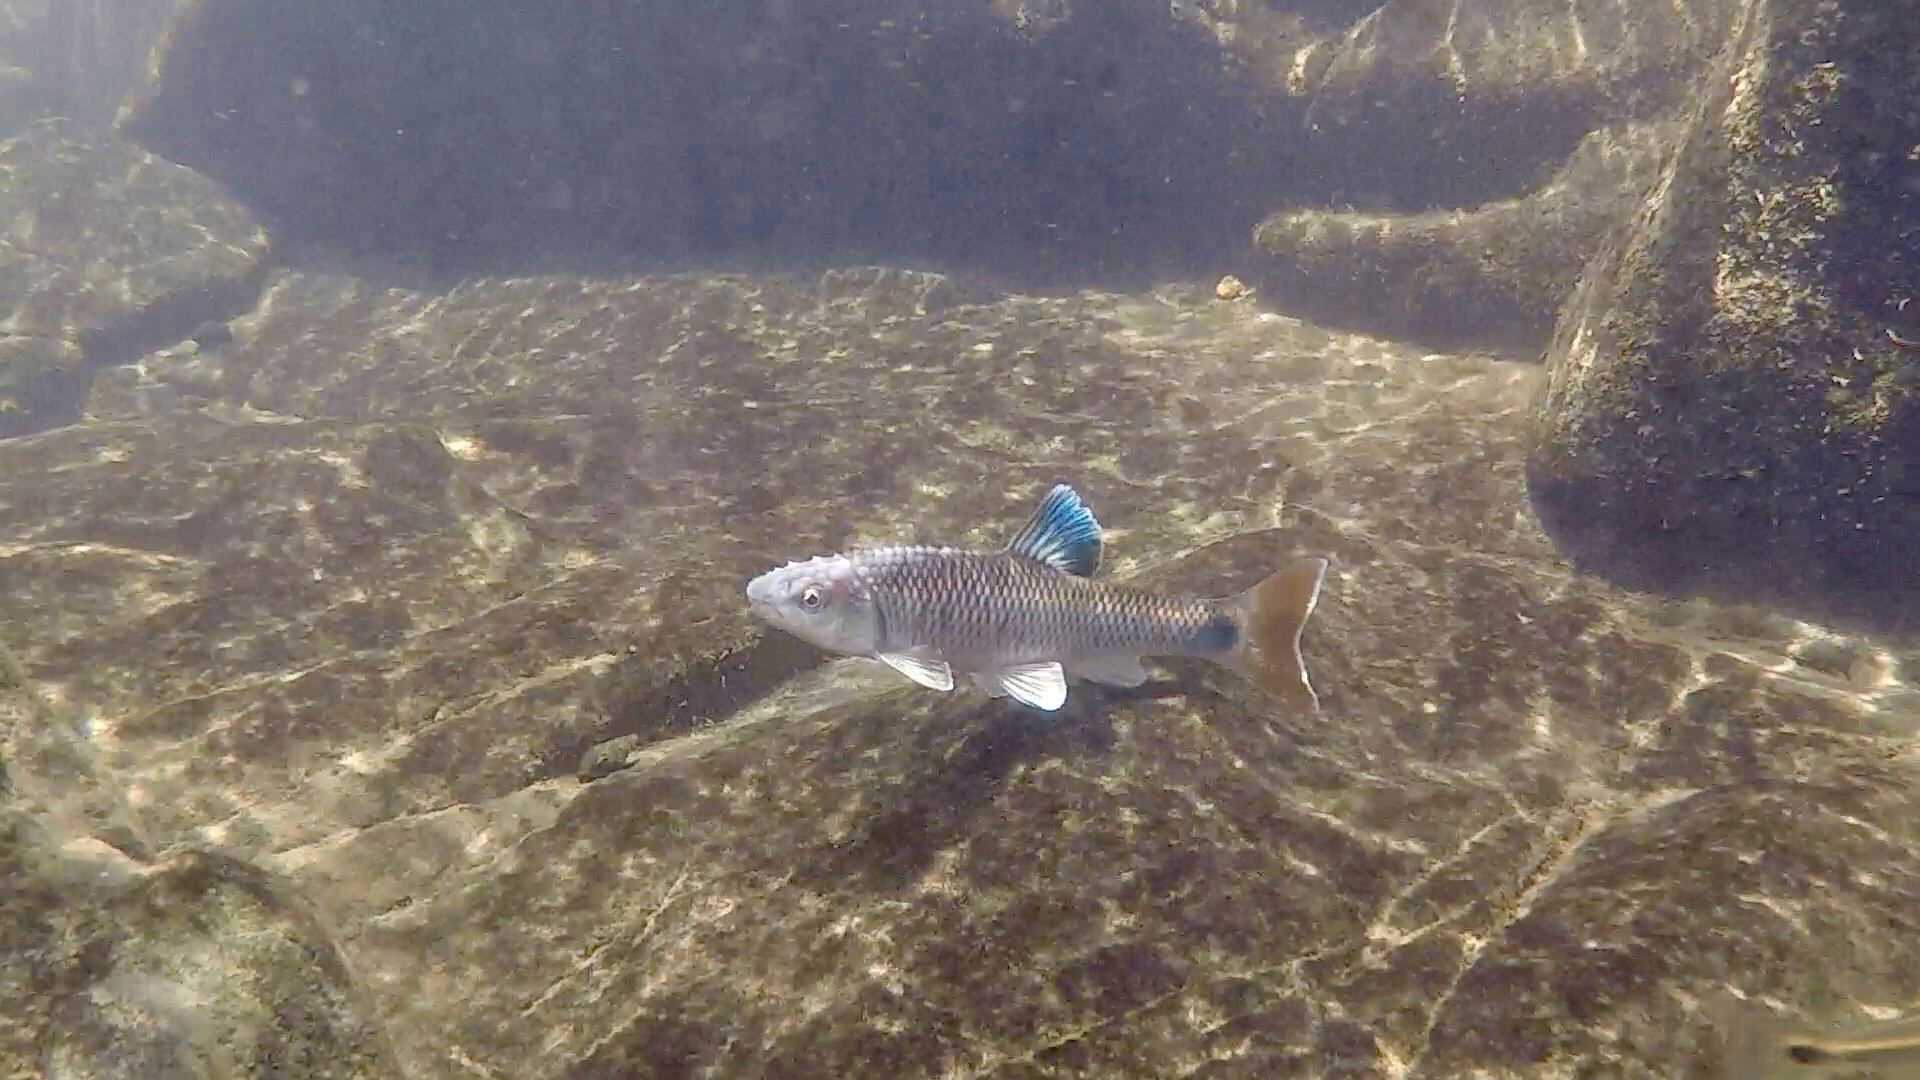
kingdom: Animalia
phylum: Chordata
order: Cypriniformes
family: Cyprinidae
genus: Cyprinella
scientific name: Cyprinella callistia
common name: Alabama shiner
